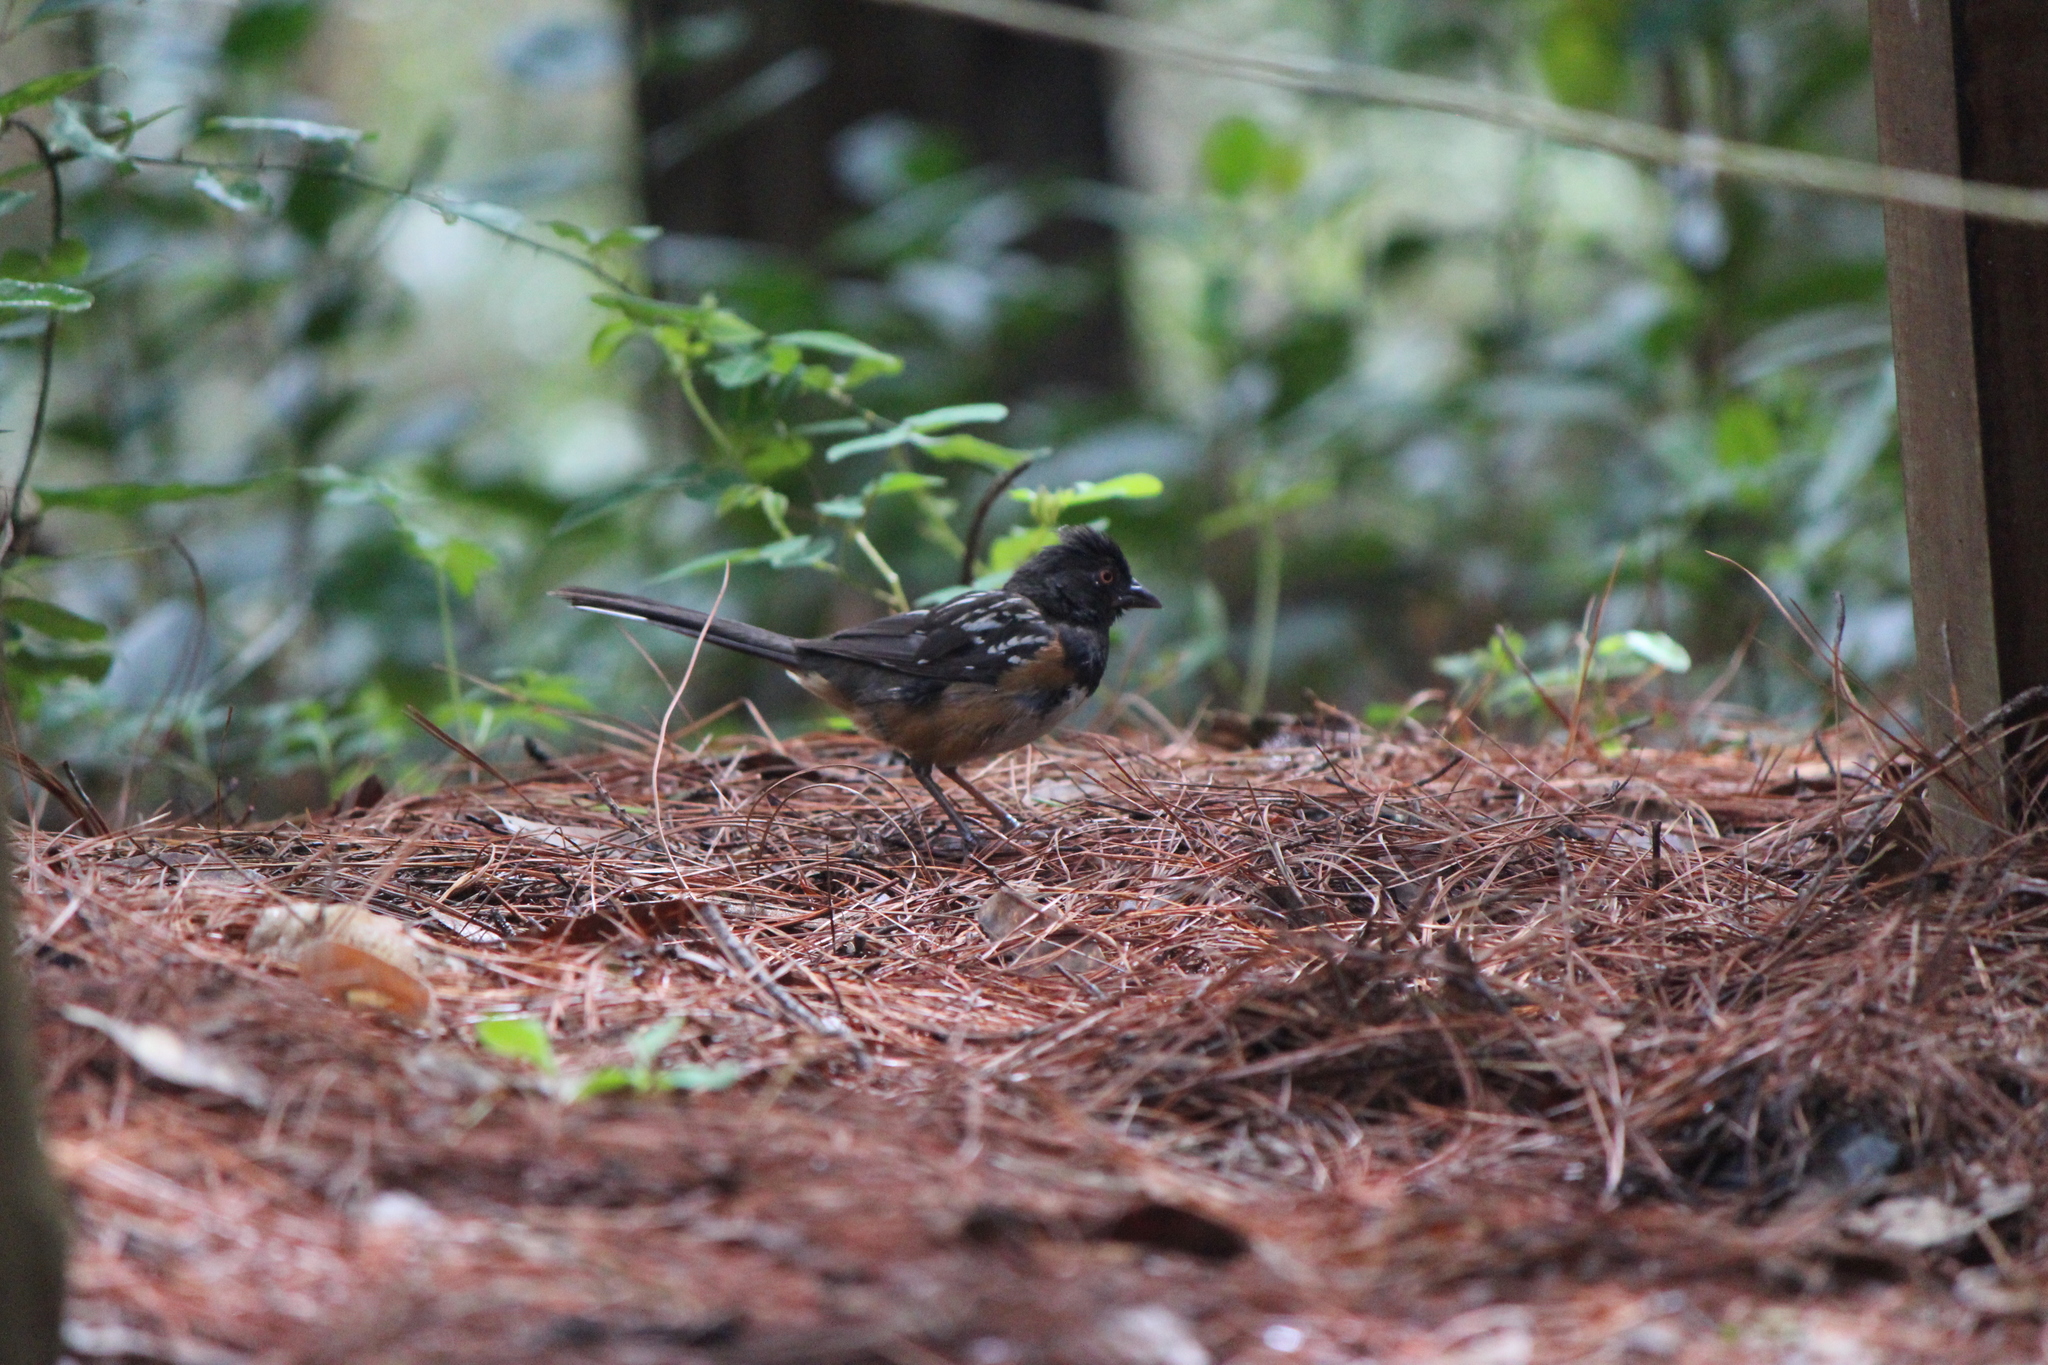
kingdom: Animalia
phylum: Chordata
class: Aves
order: Passeriformes
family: Passerellidae
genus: Pipilo
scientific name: Pipilo maculatus
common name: Spotted towhee
